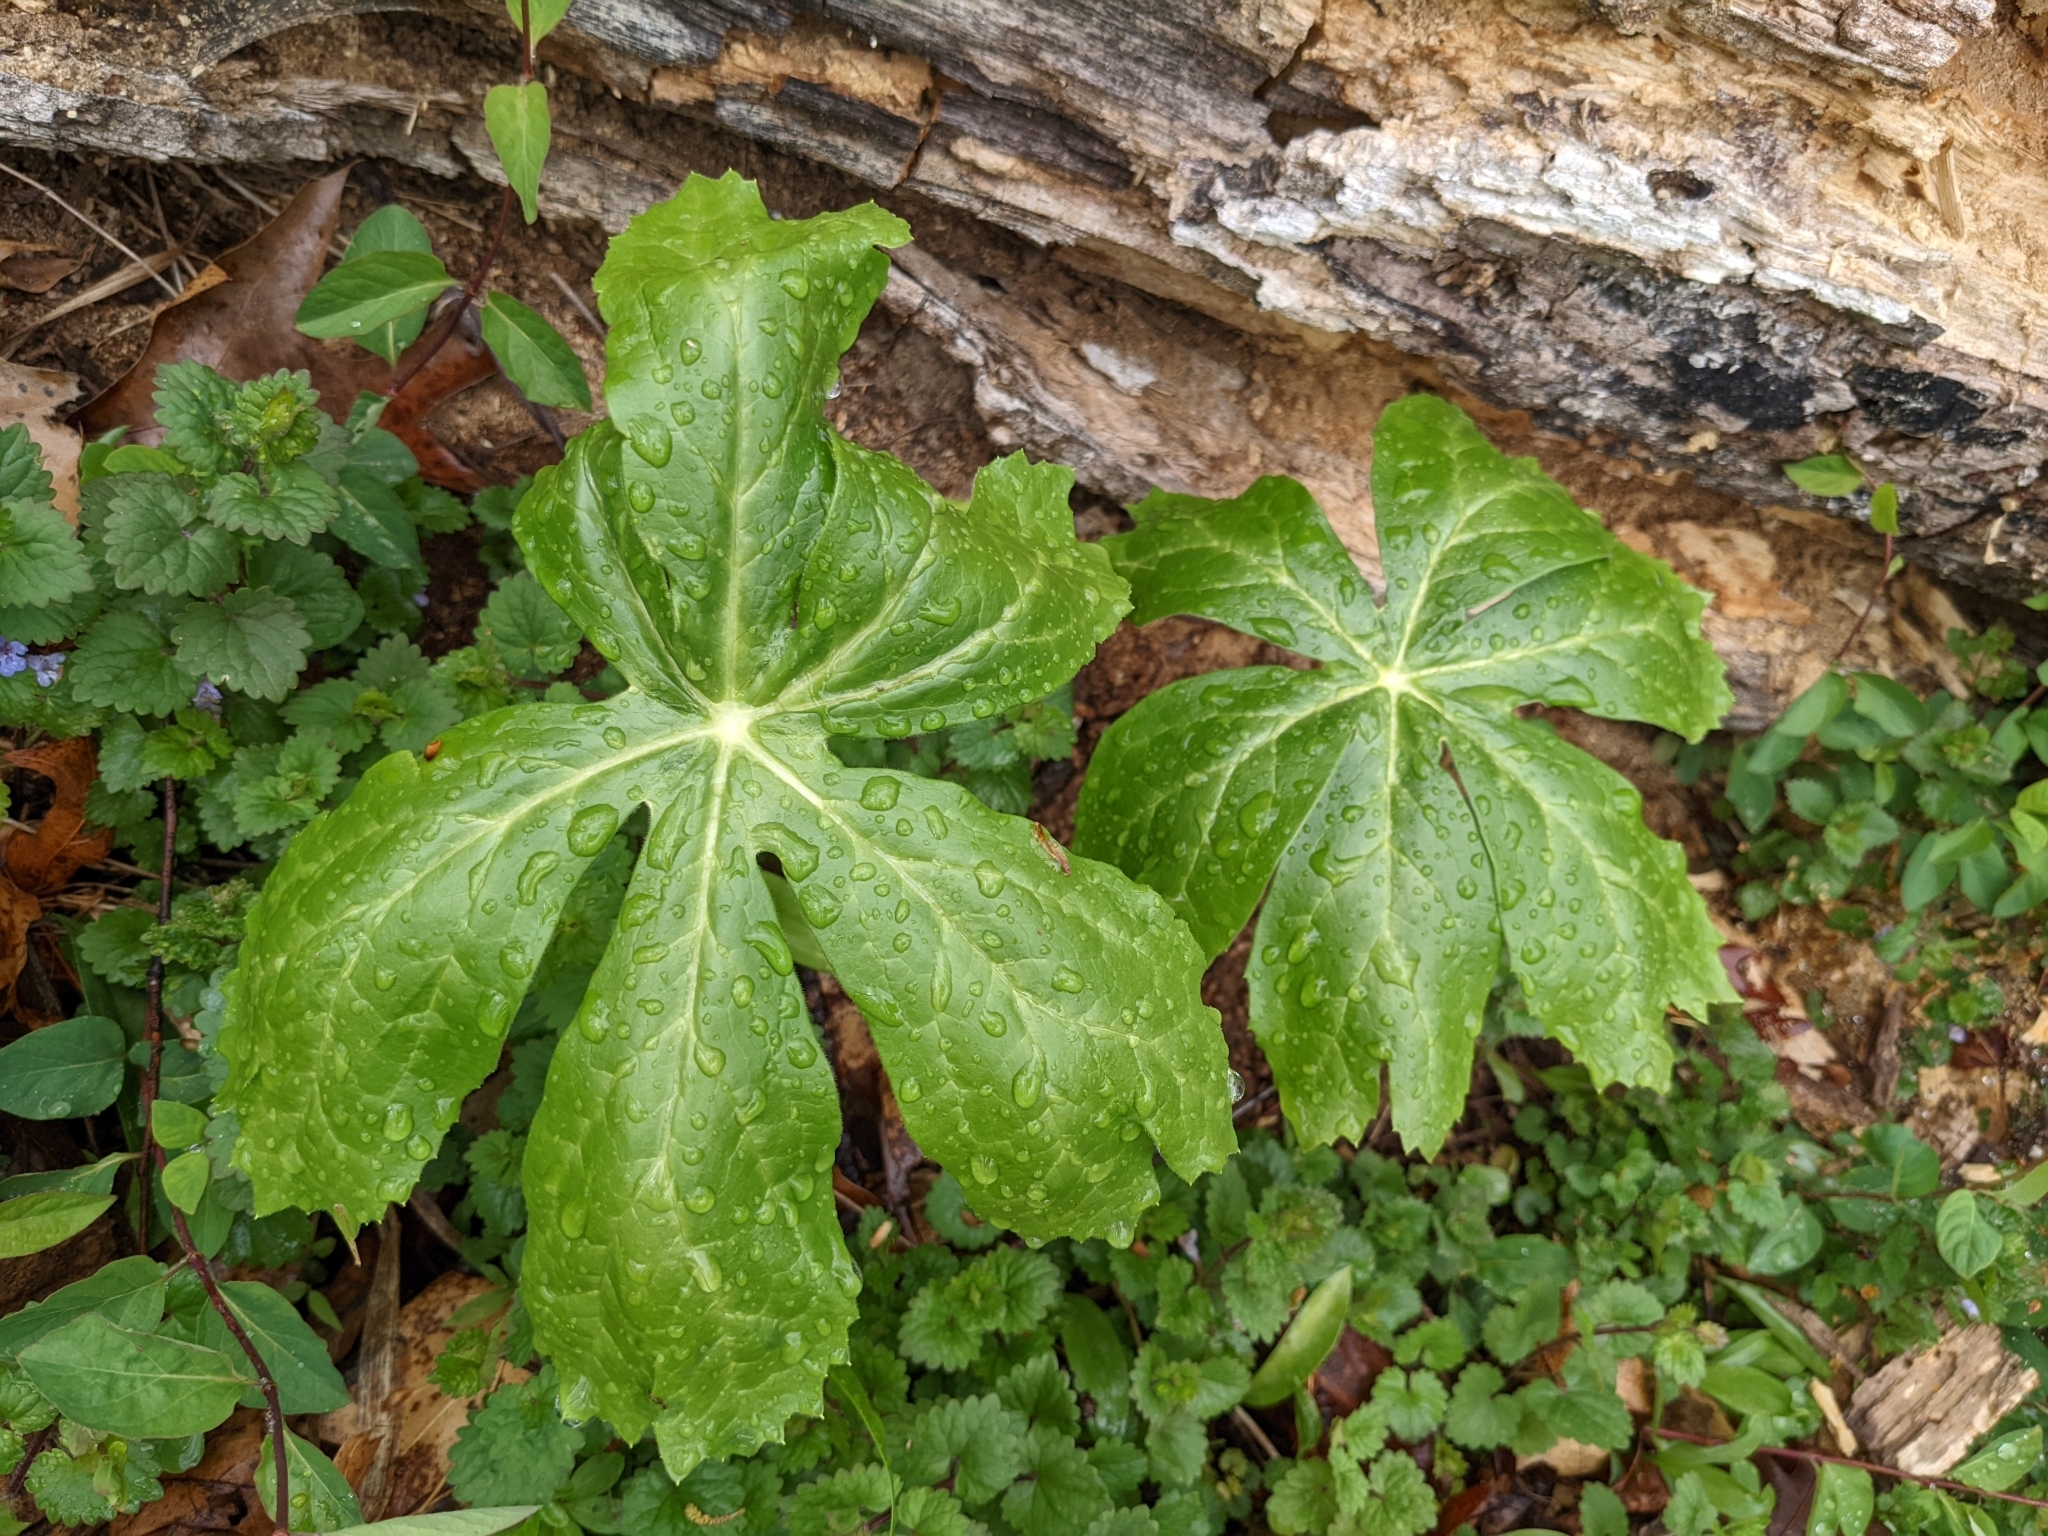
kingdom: Plantae
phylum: Tracheophyta
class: Magnoliopsida
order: Ranunculales
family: Berberidaceae
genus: Podophyllum
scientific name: Podophyllum peltatum
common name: Wild mandrake
